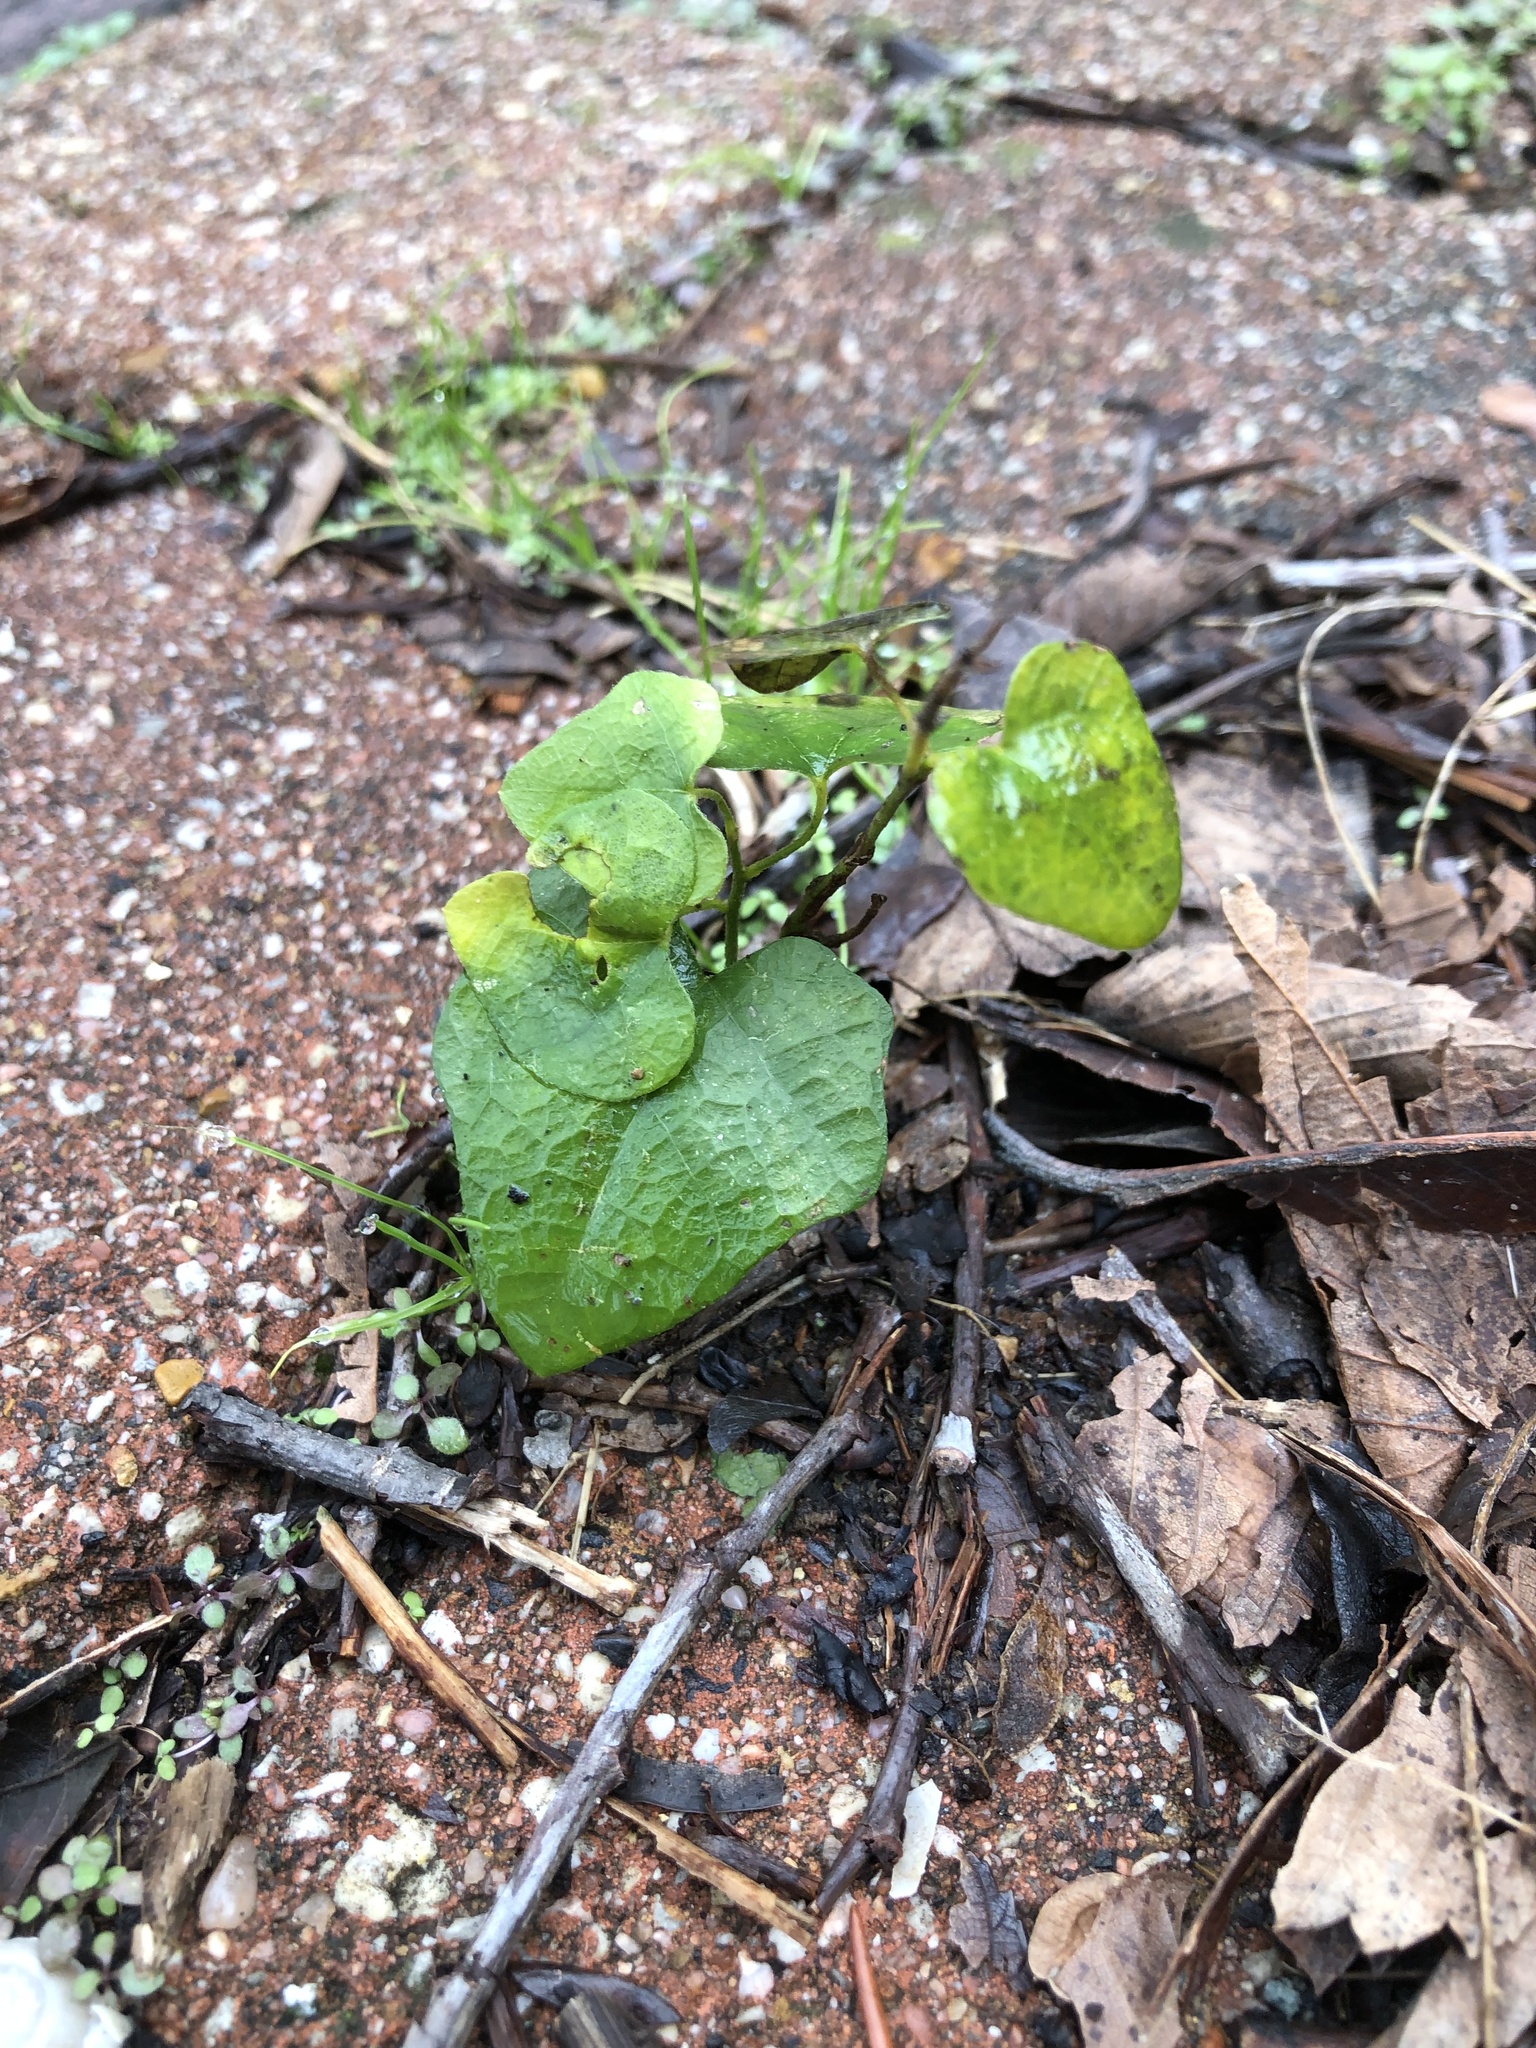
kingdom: Plantae
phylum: Tracheophyta
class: Magnoliopsida
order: Ranunculales
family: Menispermaceae
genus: Cocculus
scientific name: Cocculus carolinus
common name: Carolina moonseed
